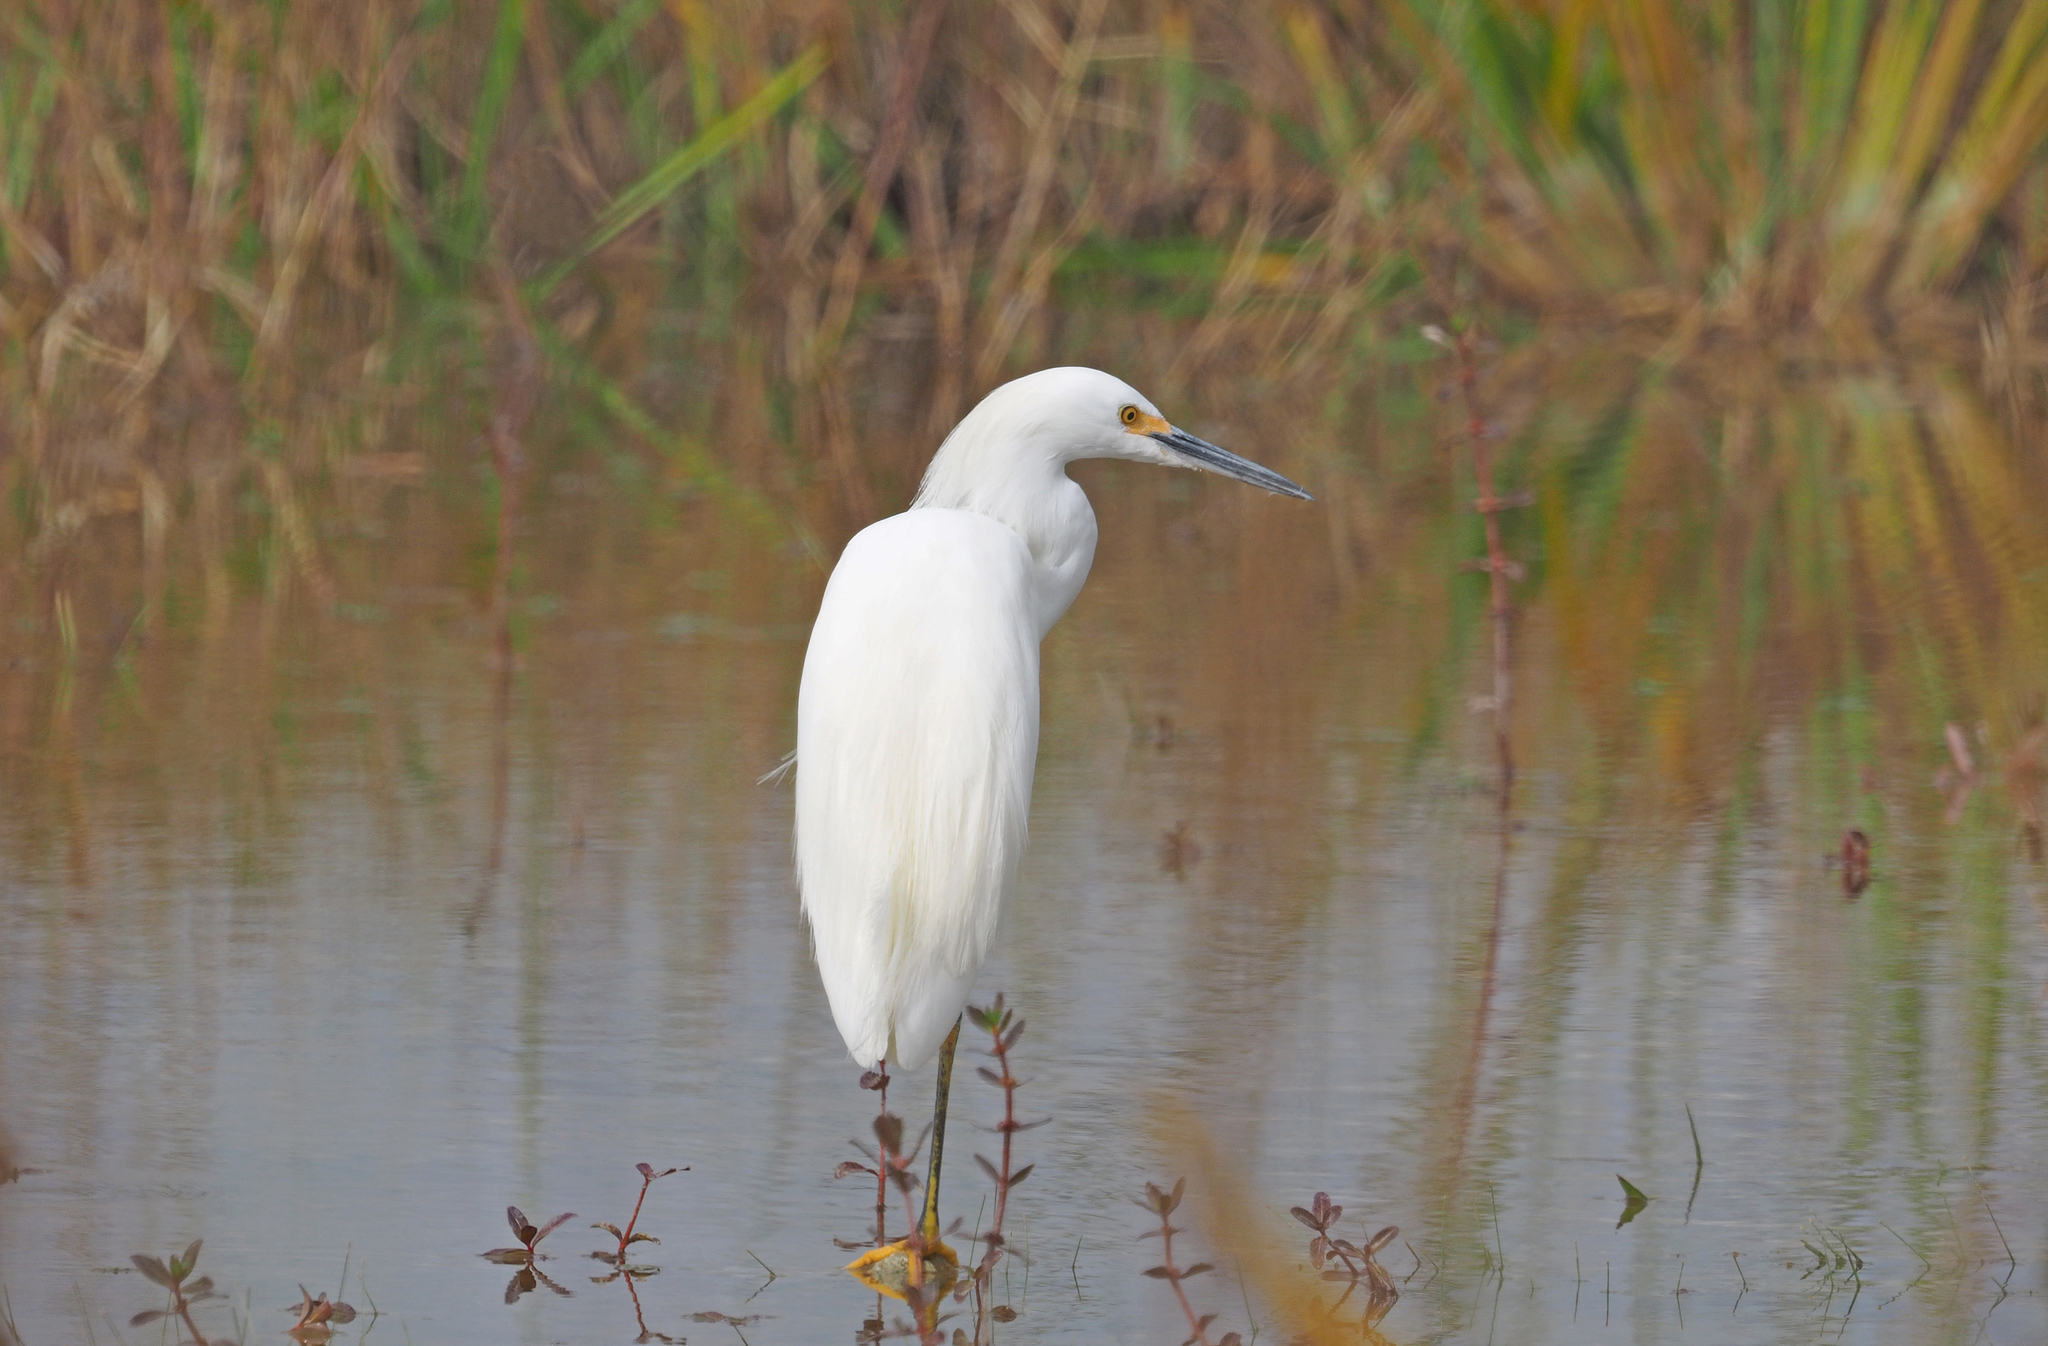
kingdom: Animalia
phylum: Chordata
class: Aves
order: Pelecaniformes
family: Ardeidae
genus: Egretta
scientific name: Egretta thula
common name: Snowy egret
